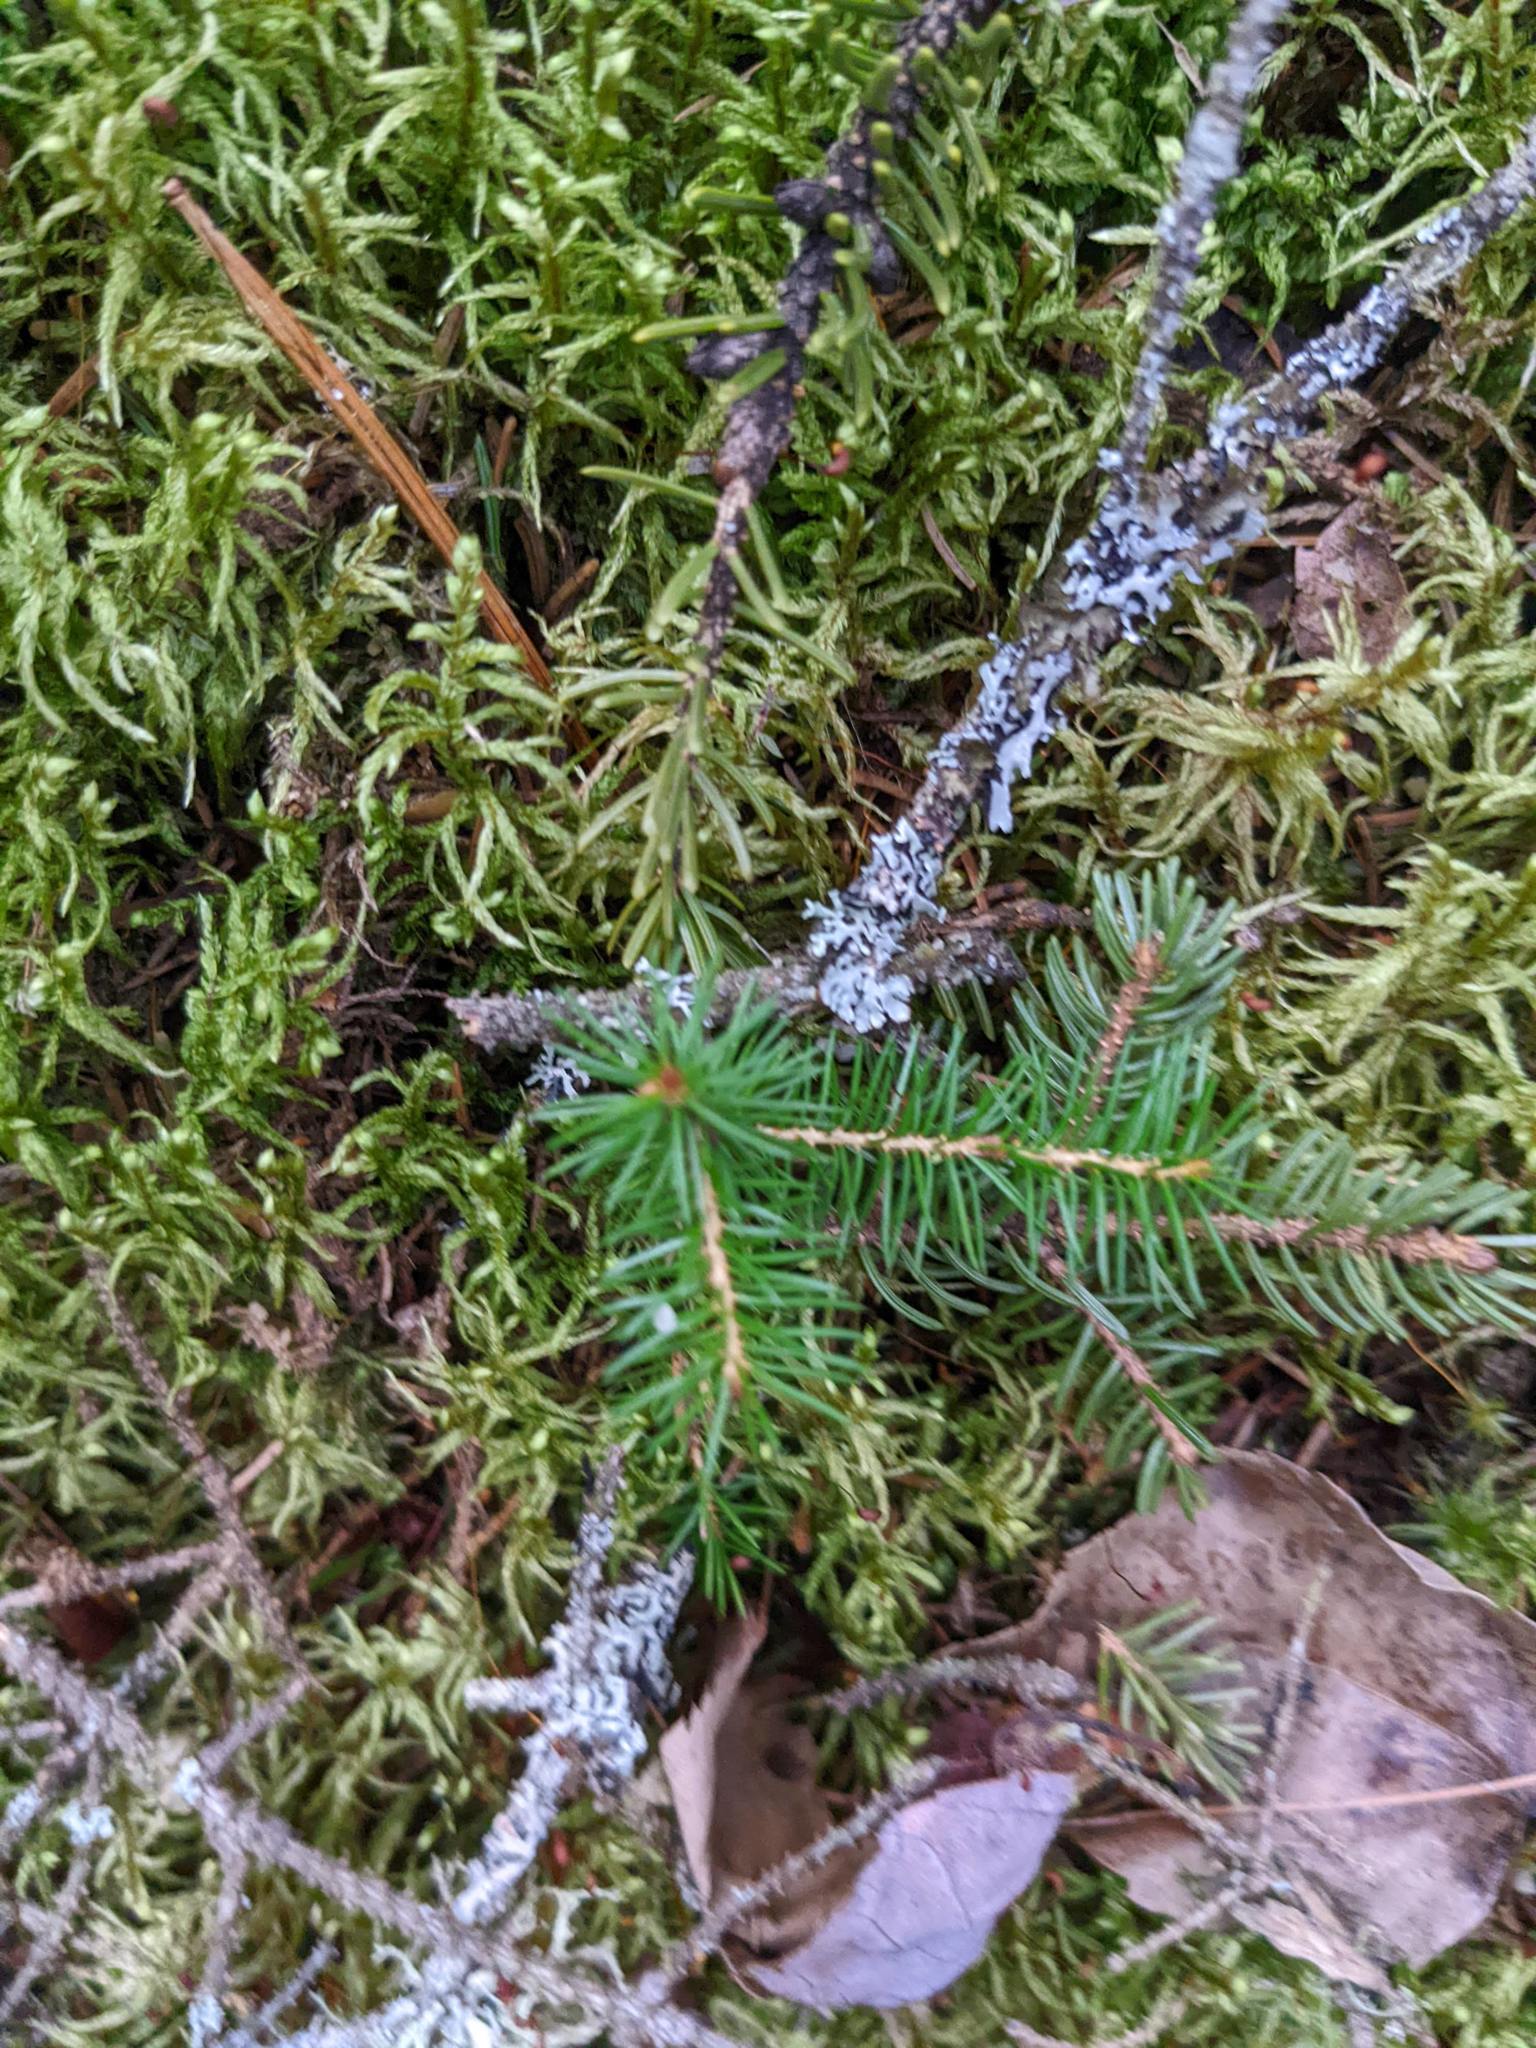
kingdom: Plantae
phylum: Tracheophyta
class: Pinopsida
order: Pinales
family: Pinaceae
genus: Picea
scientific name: Picea rubens
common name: Red spruce
